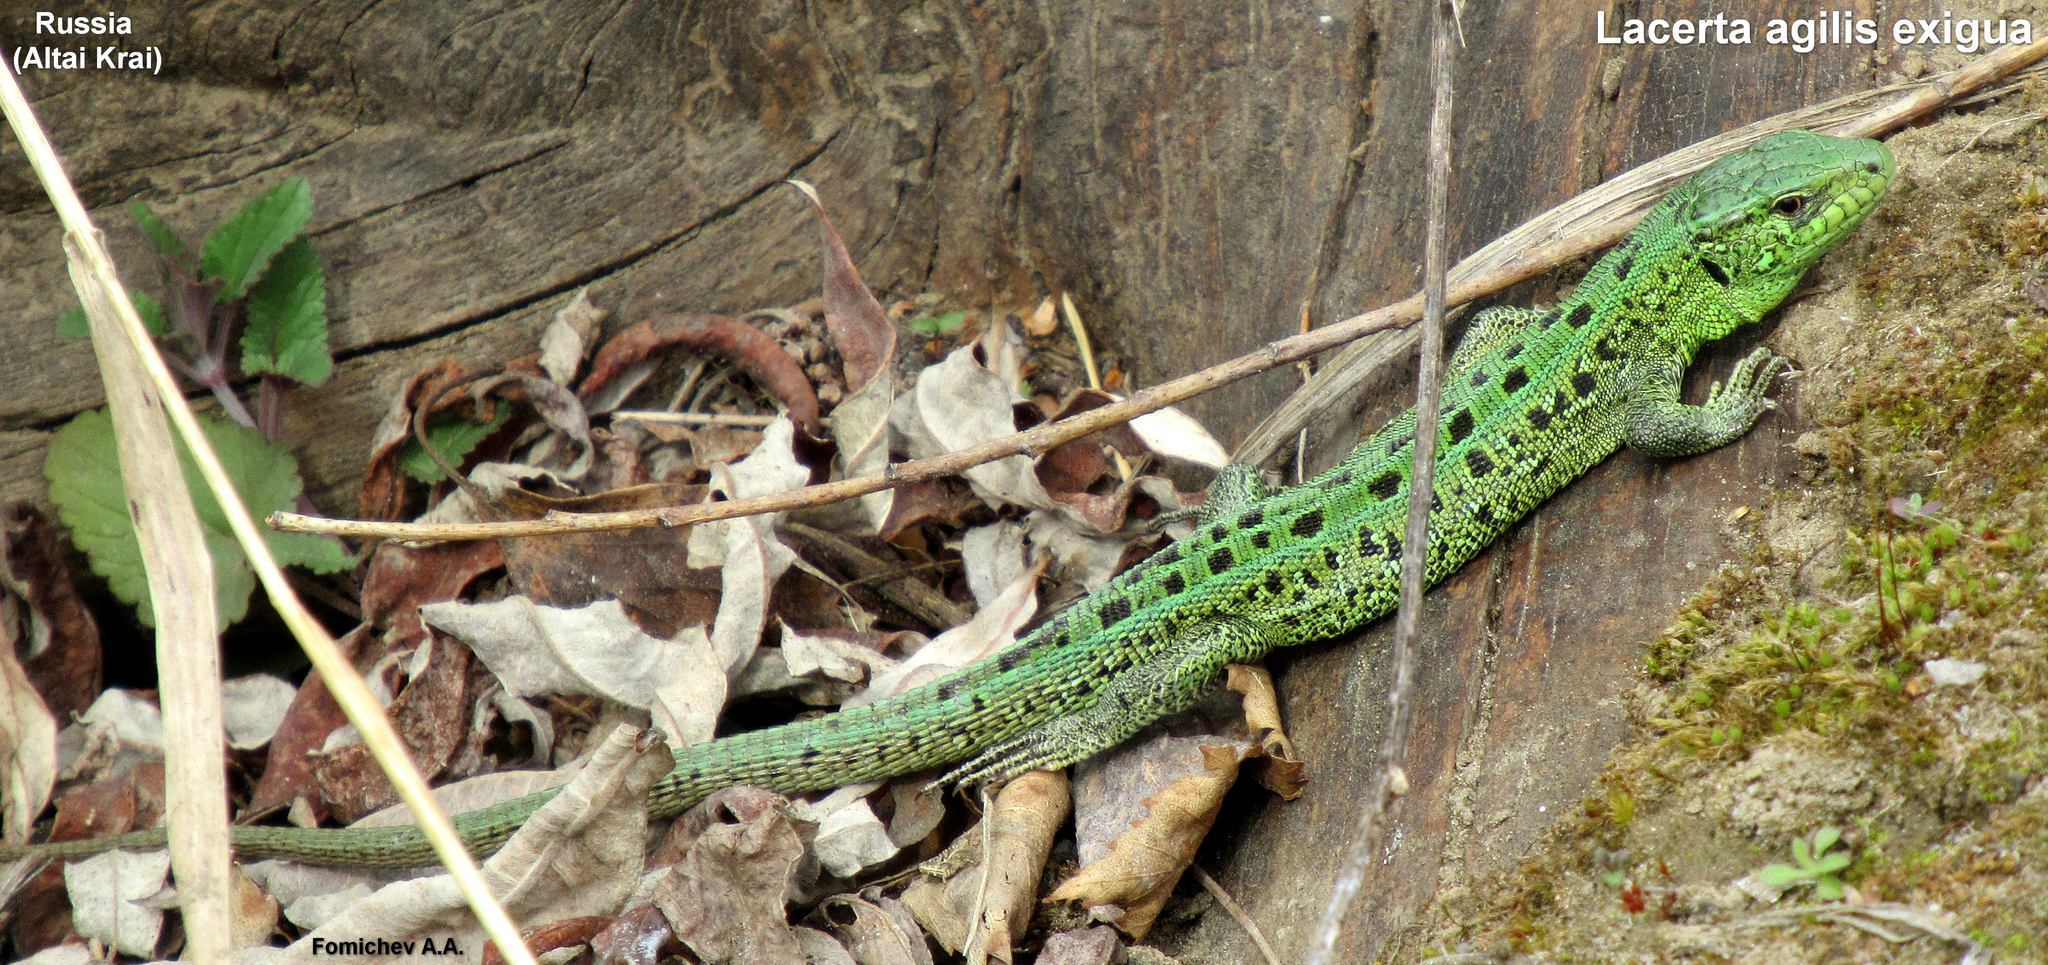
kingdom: Animalia
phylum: Chordata
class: Squamata
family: Lacertidae
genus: Lacerta
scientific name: Lacerta agilis
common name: Sand lizard
